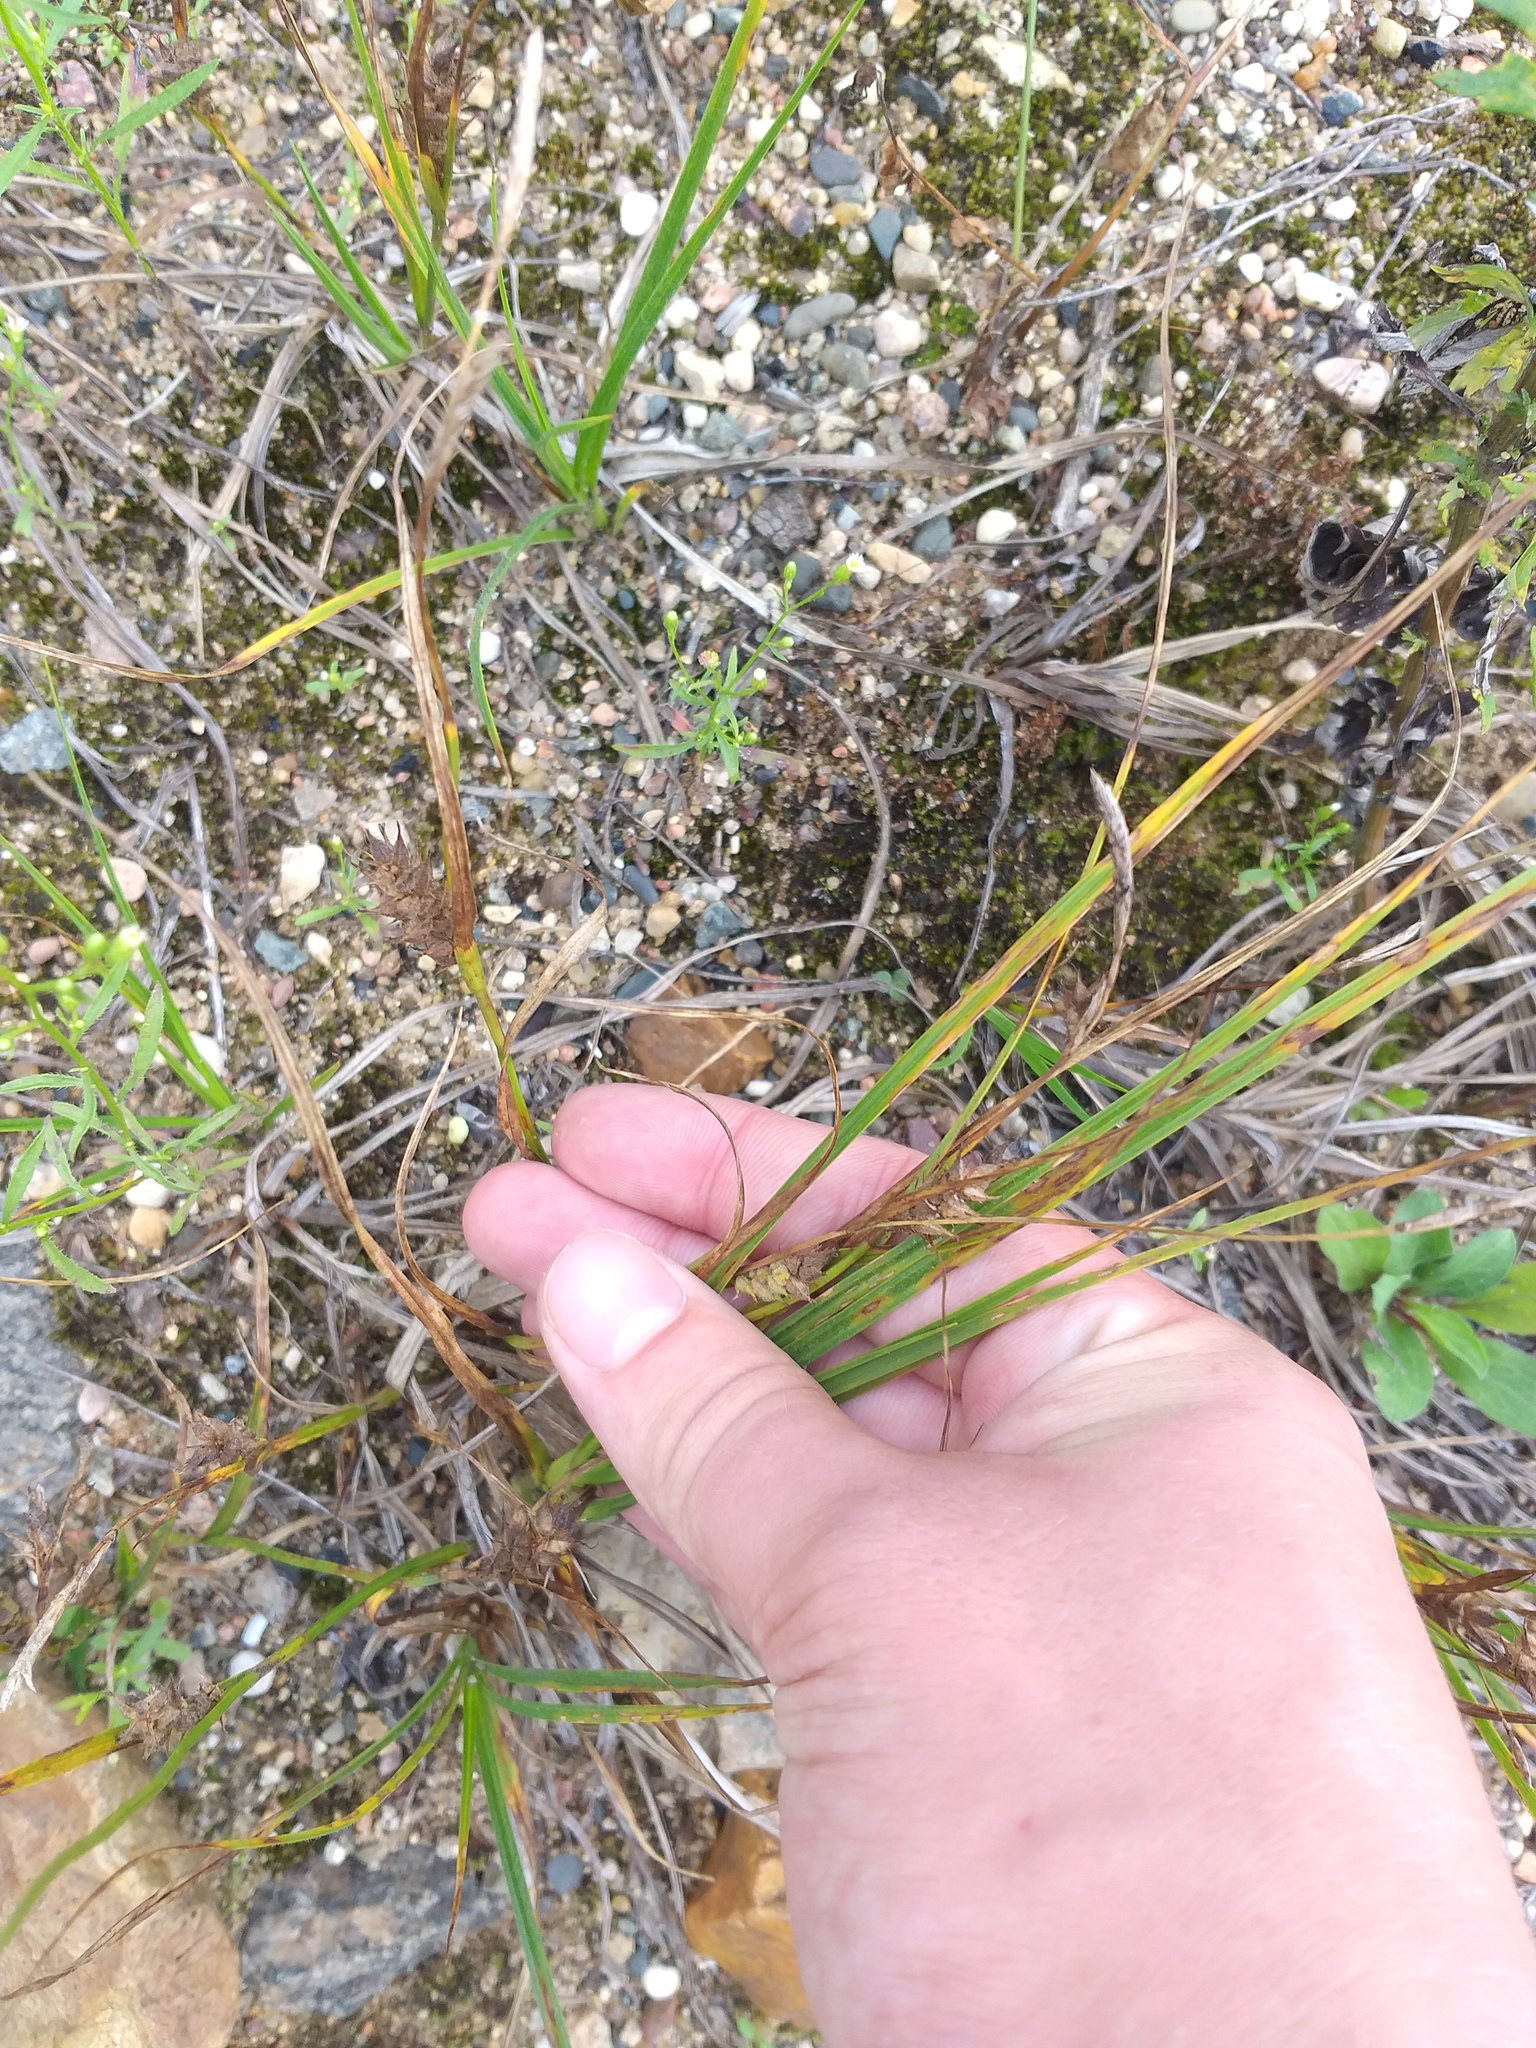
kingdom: Plantae
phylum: Tracheophyta
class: Liliopsida
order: Poales
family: Cyperaceae
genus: Carex
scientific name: Carex hirta
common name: Hairy sedge
